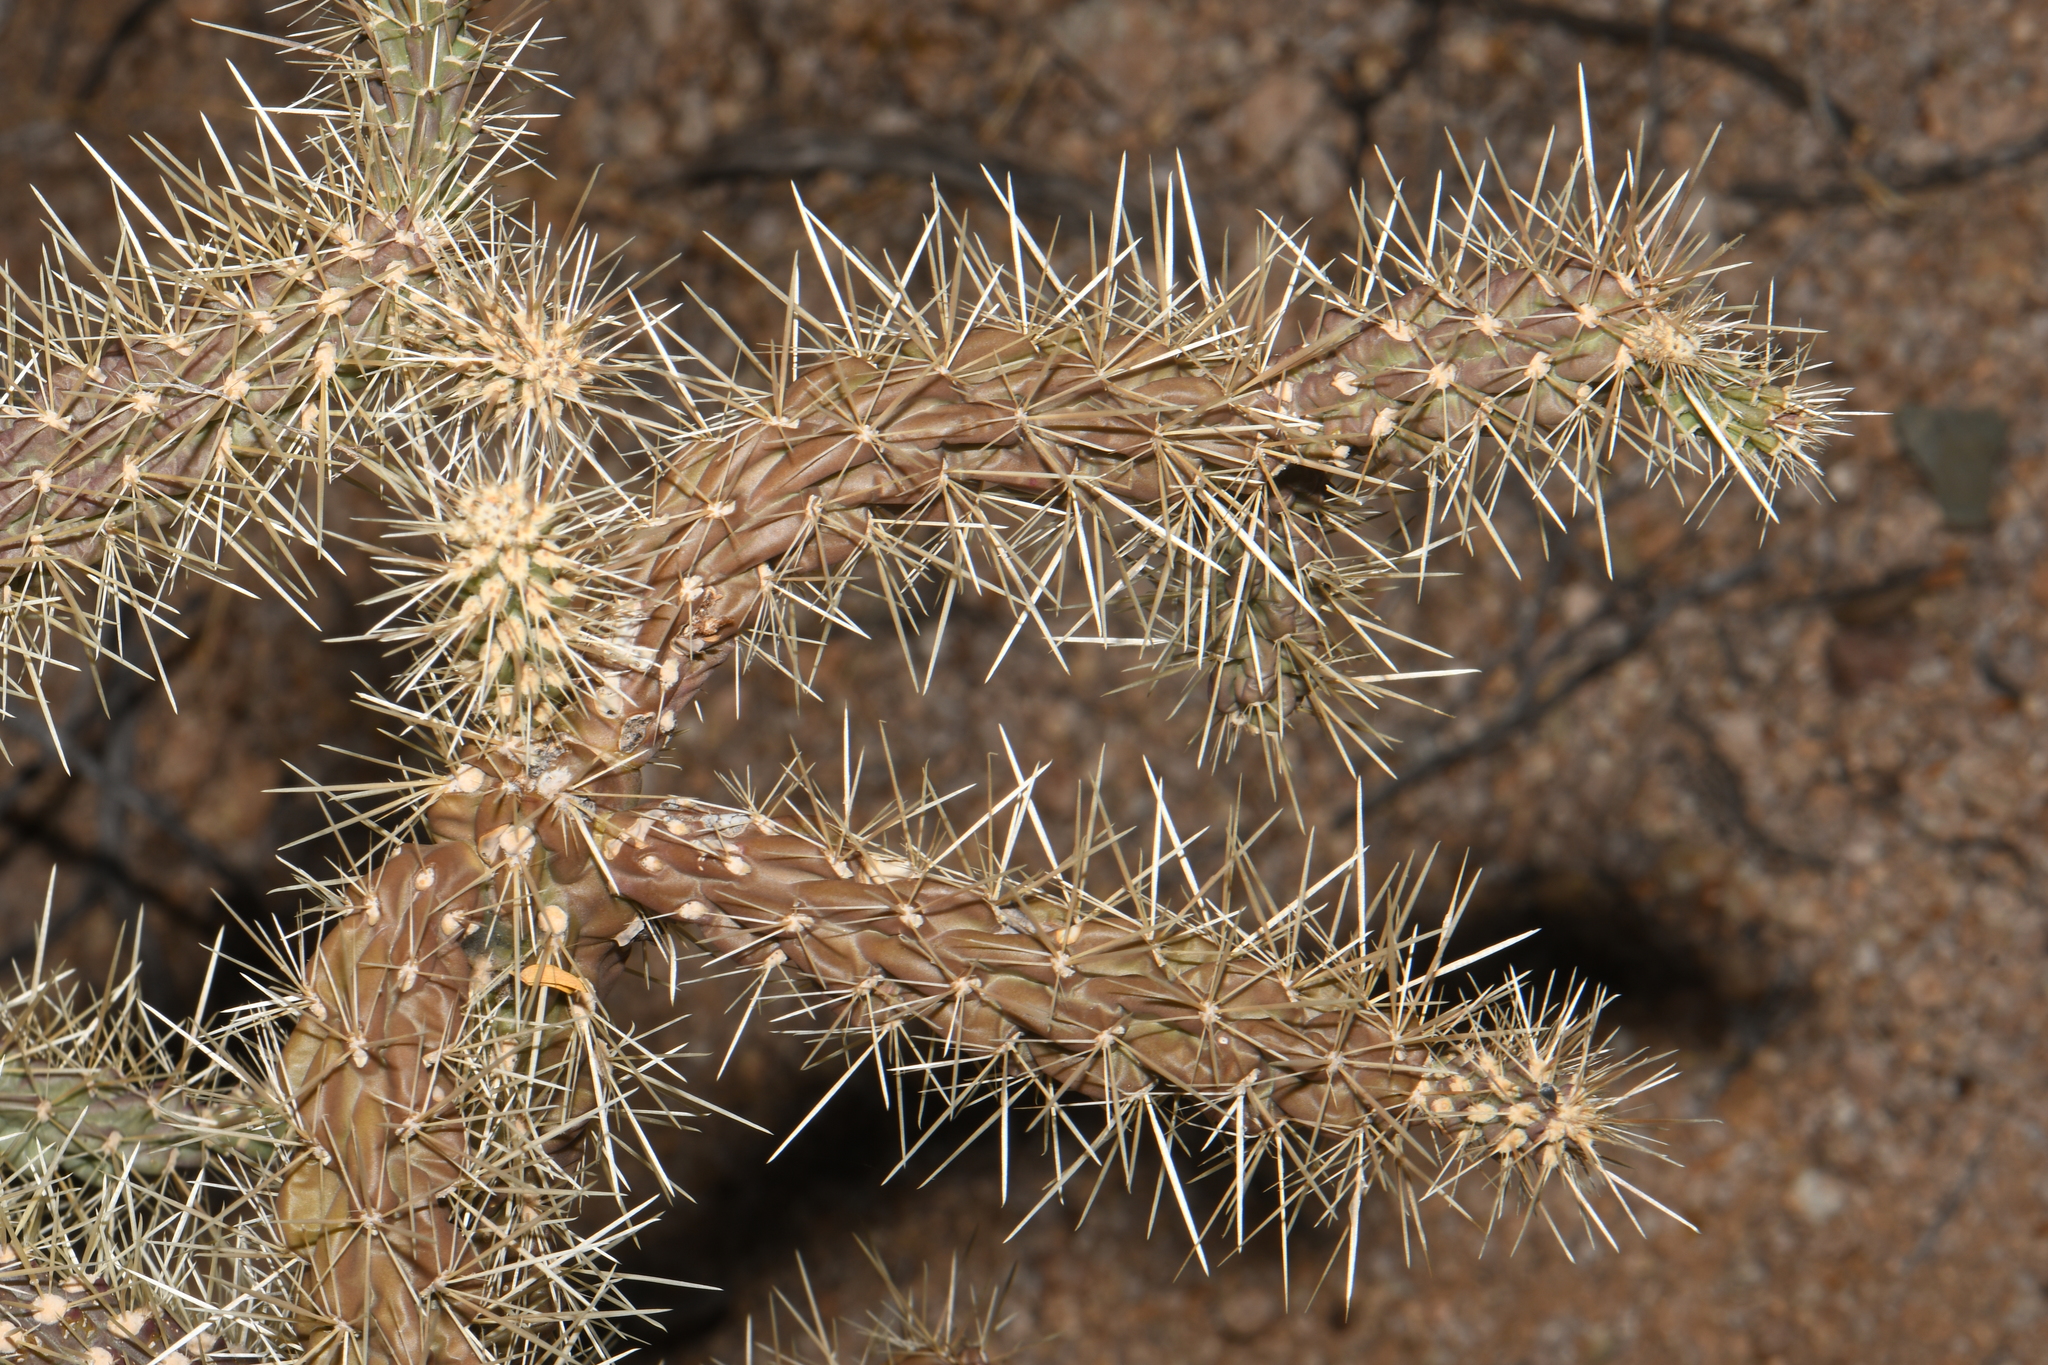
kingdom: Plantae
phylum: Tracheophyta
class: Magnoliopsida
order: Caryophyllales
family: Cactaceae
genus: Cylindropuntia
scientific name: Cylindropuntia fulgida
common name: Jumping cholla
